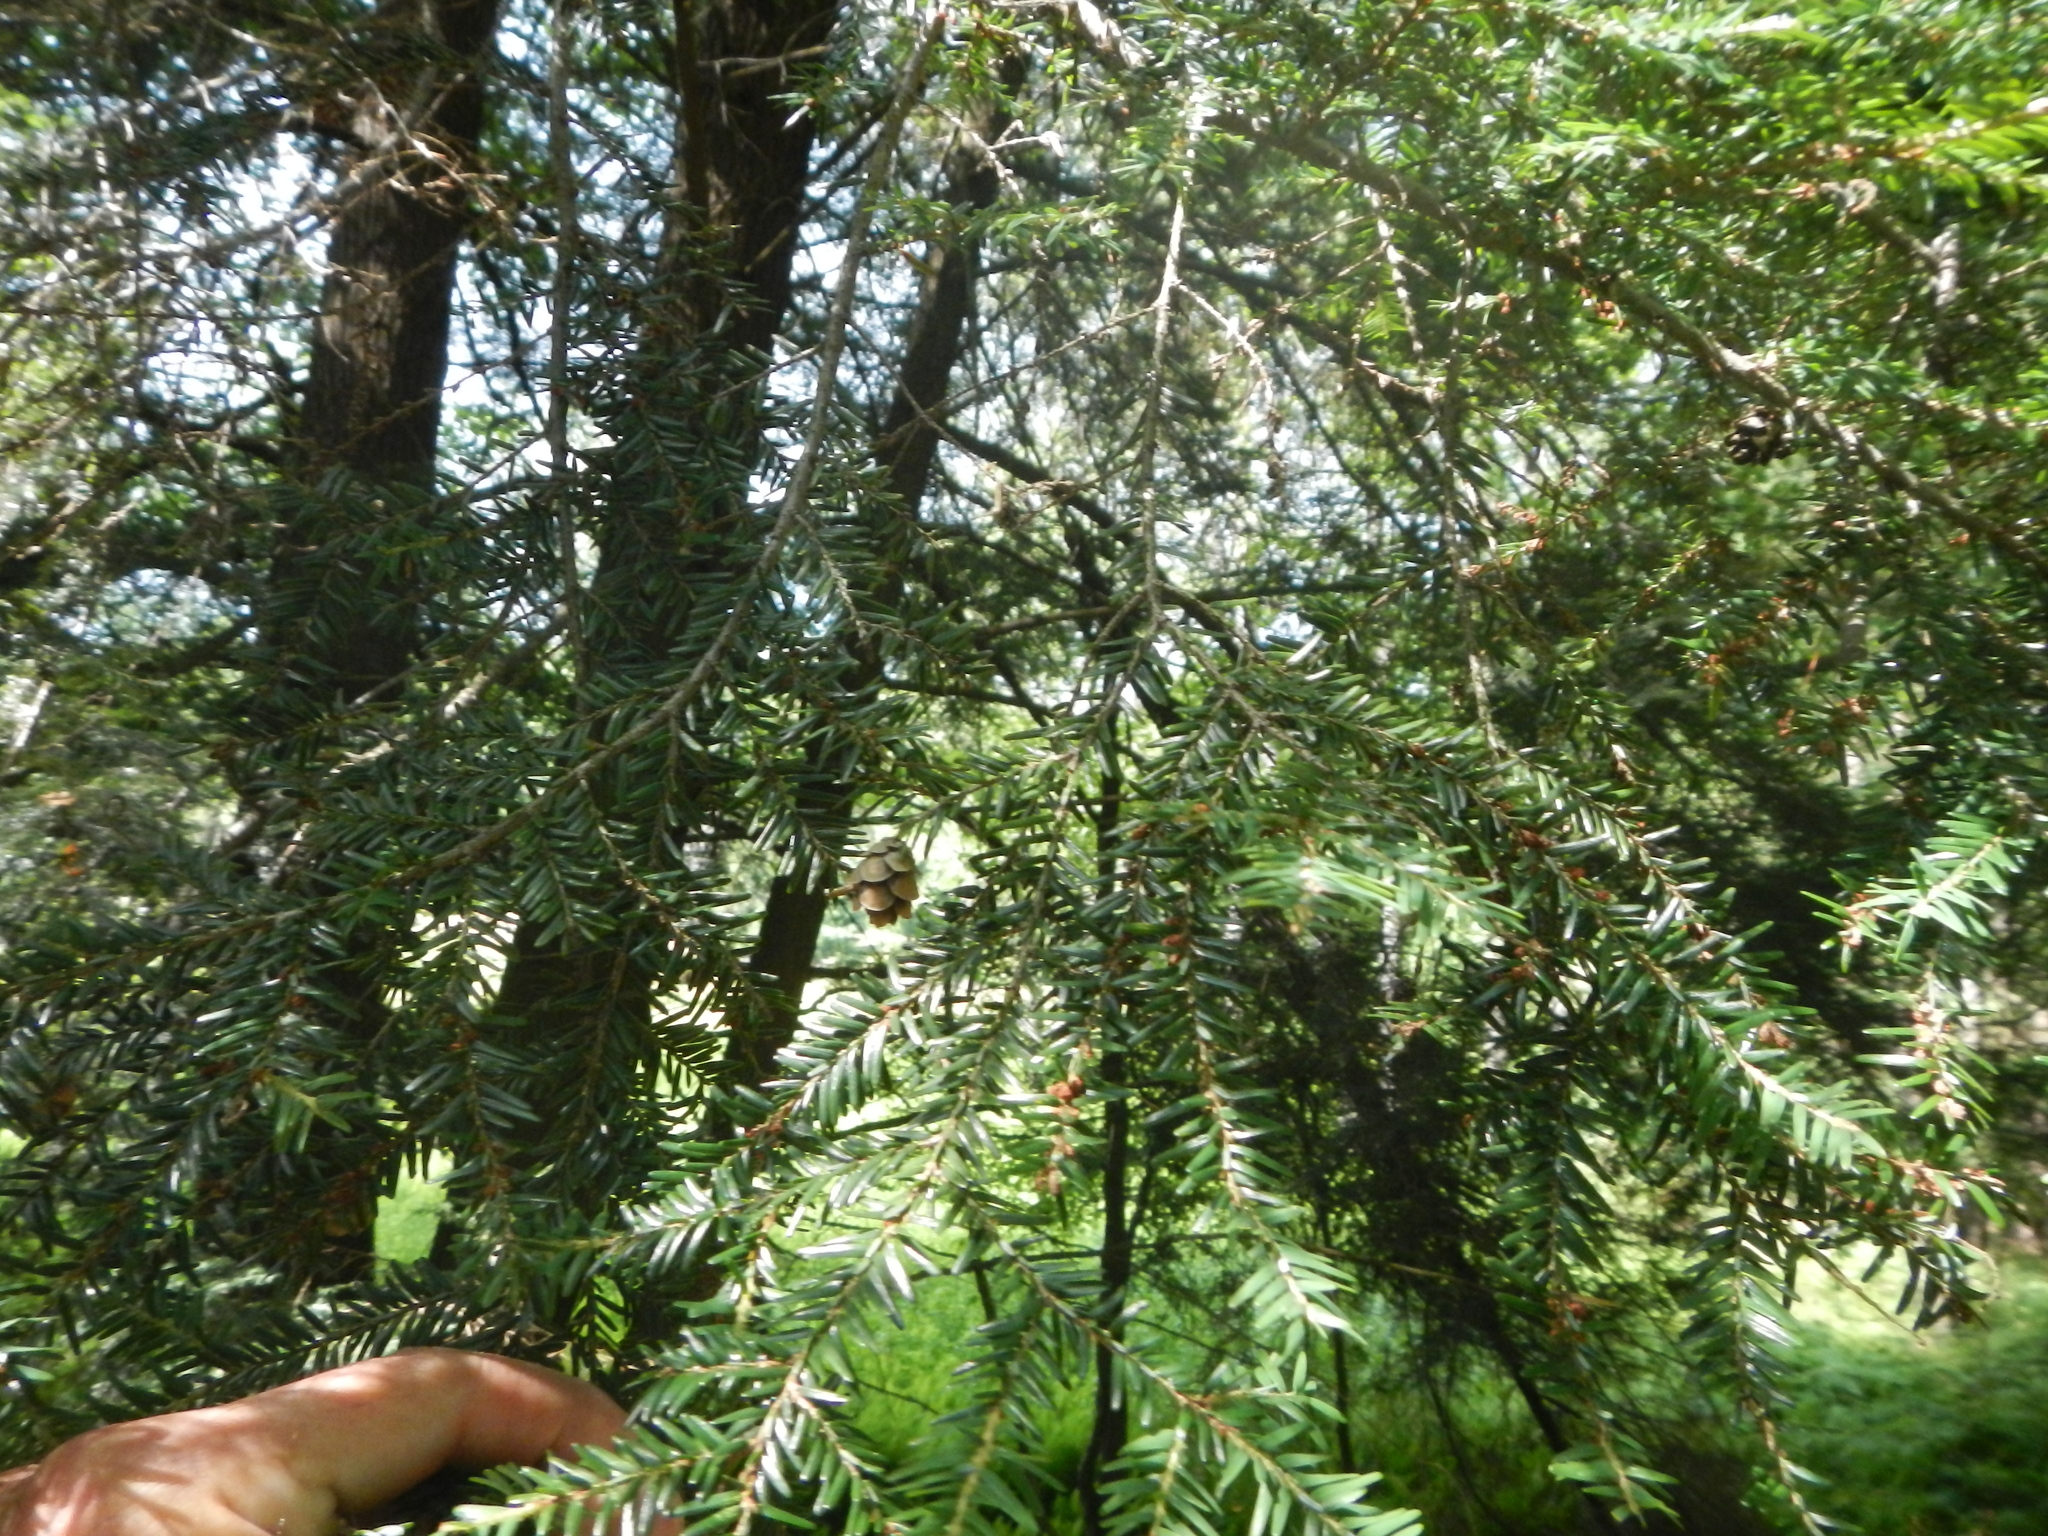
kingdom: Plantae
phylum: Tracheophyta
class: Pinopsida
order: Pinales
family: Pinaceae
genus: Tsuga
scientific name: Tsuga canadensis
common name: Eastern hemlock
